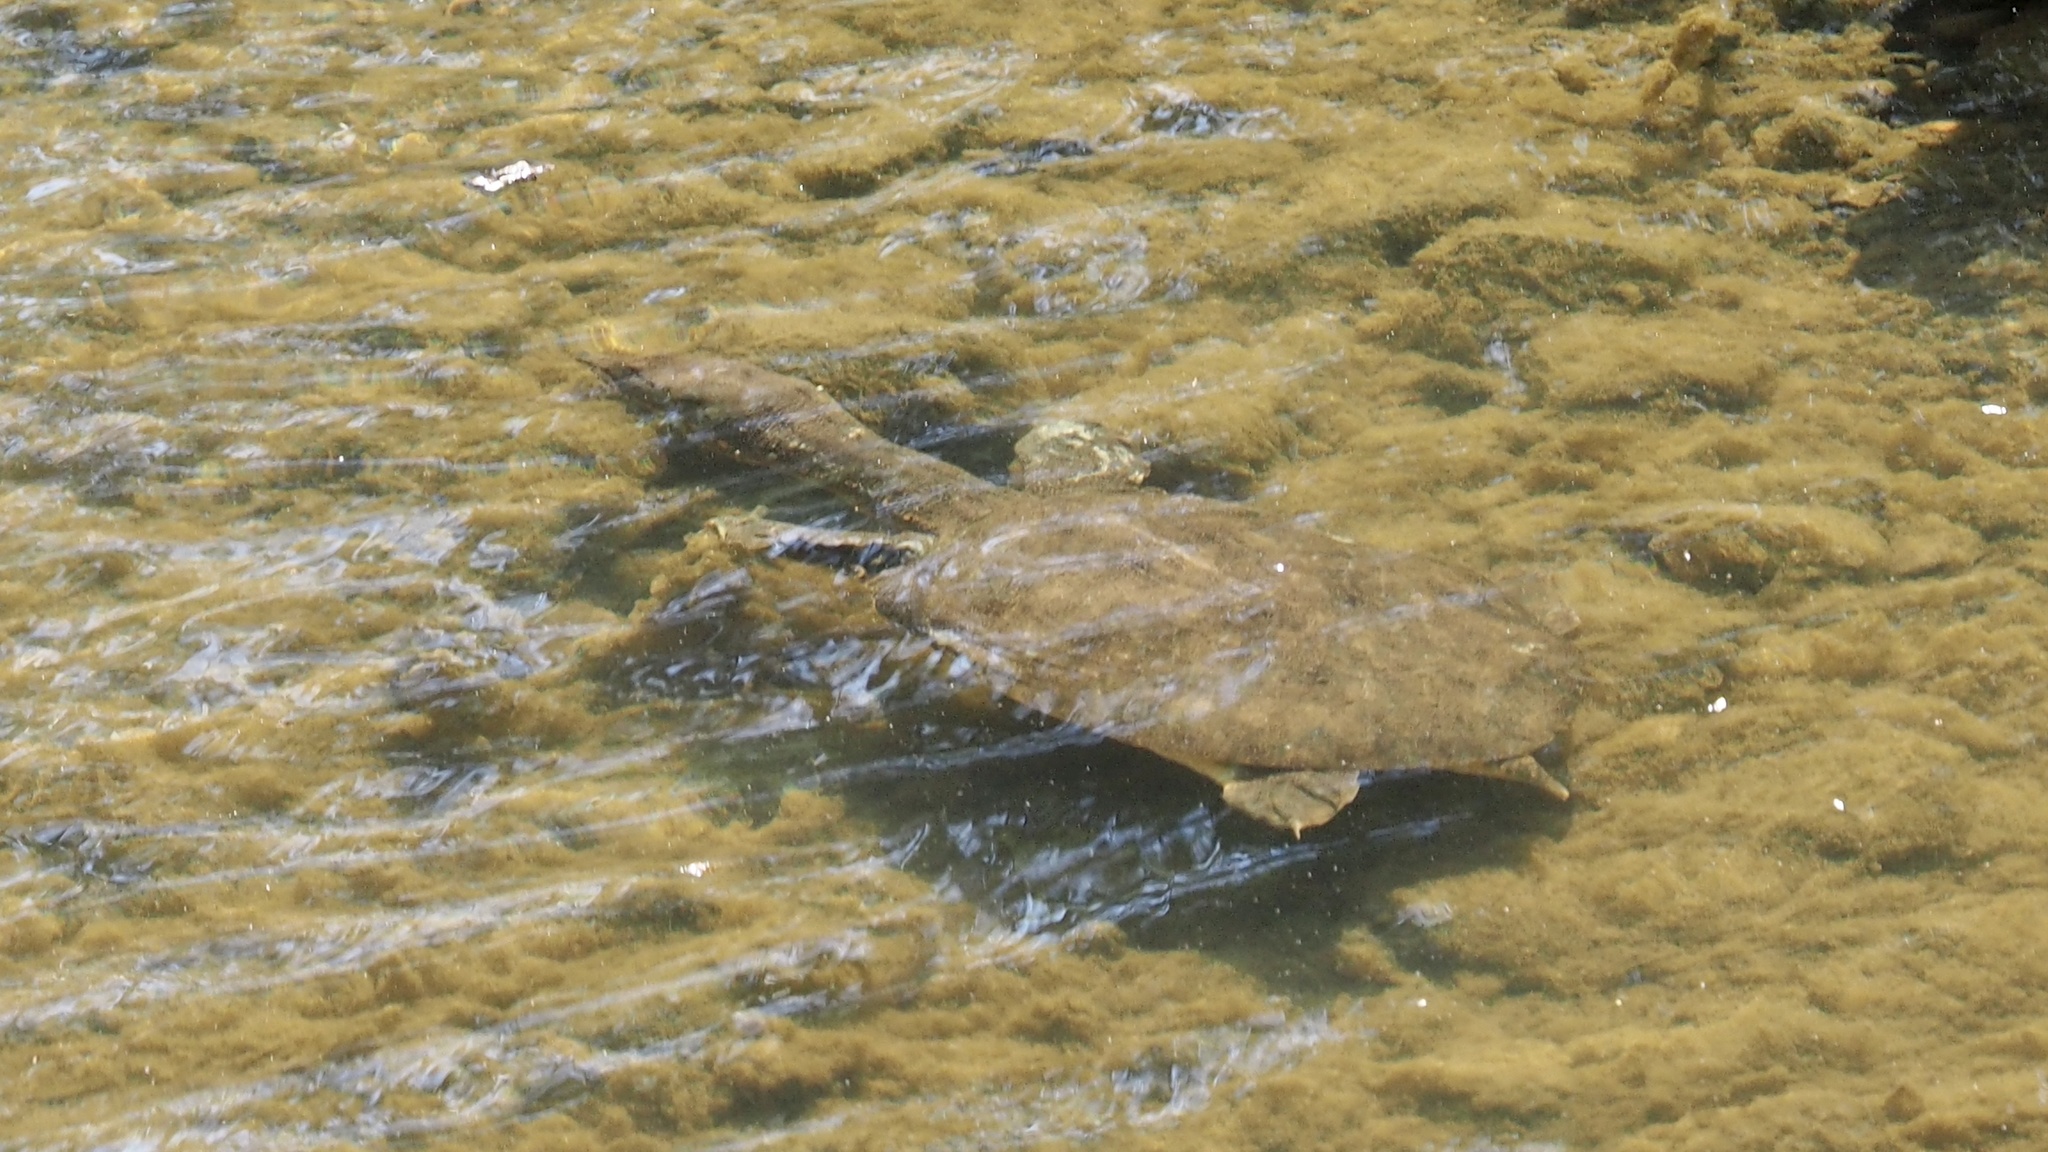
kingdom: Animalia
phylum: Chordata
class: Testudines
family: Trionychidae
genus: Pelodiscus
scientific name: Pelodiscus sinensis
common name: Chinese softshell turtle
